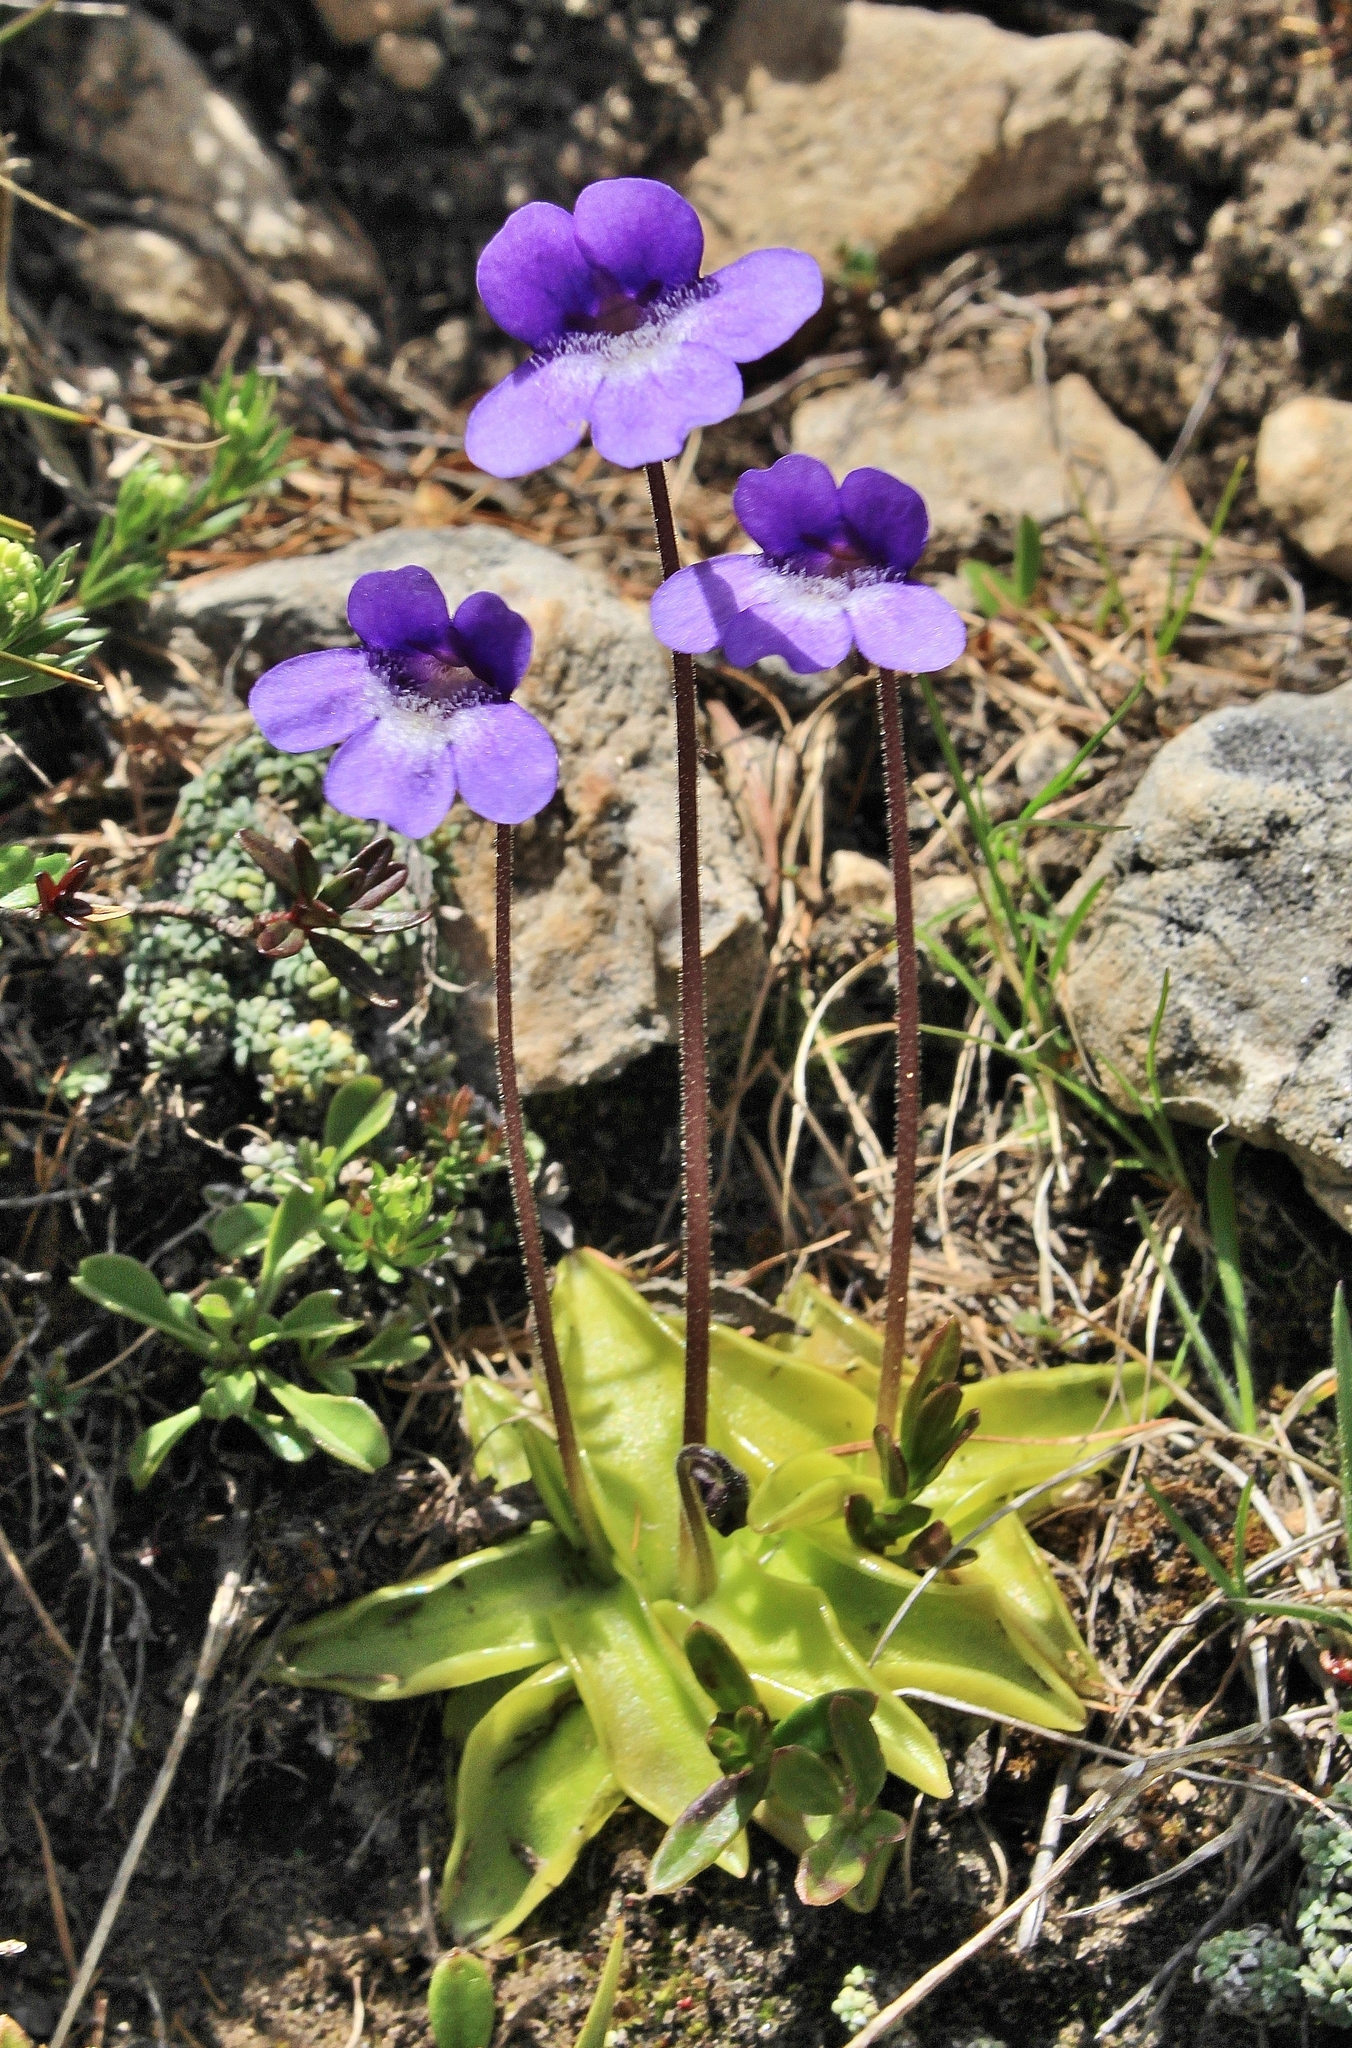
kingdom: Plantae
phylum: Tracheophyta
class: Magnoliopsida
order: Lamiales
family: Lentibulariaceae
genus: Pinguicula
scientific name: Pinguicula vulgaris
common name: Common butterwort
